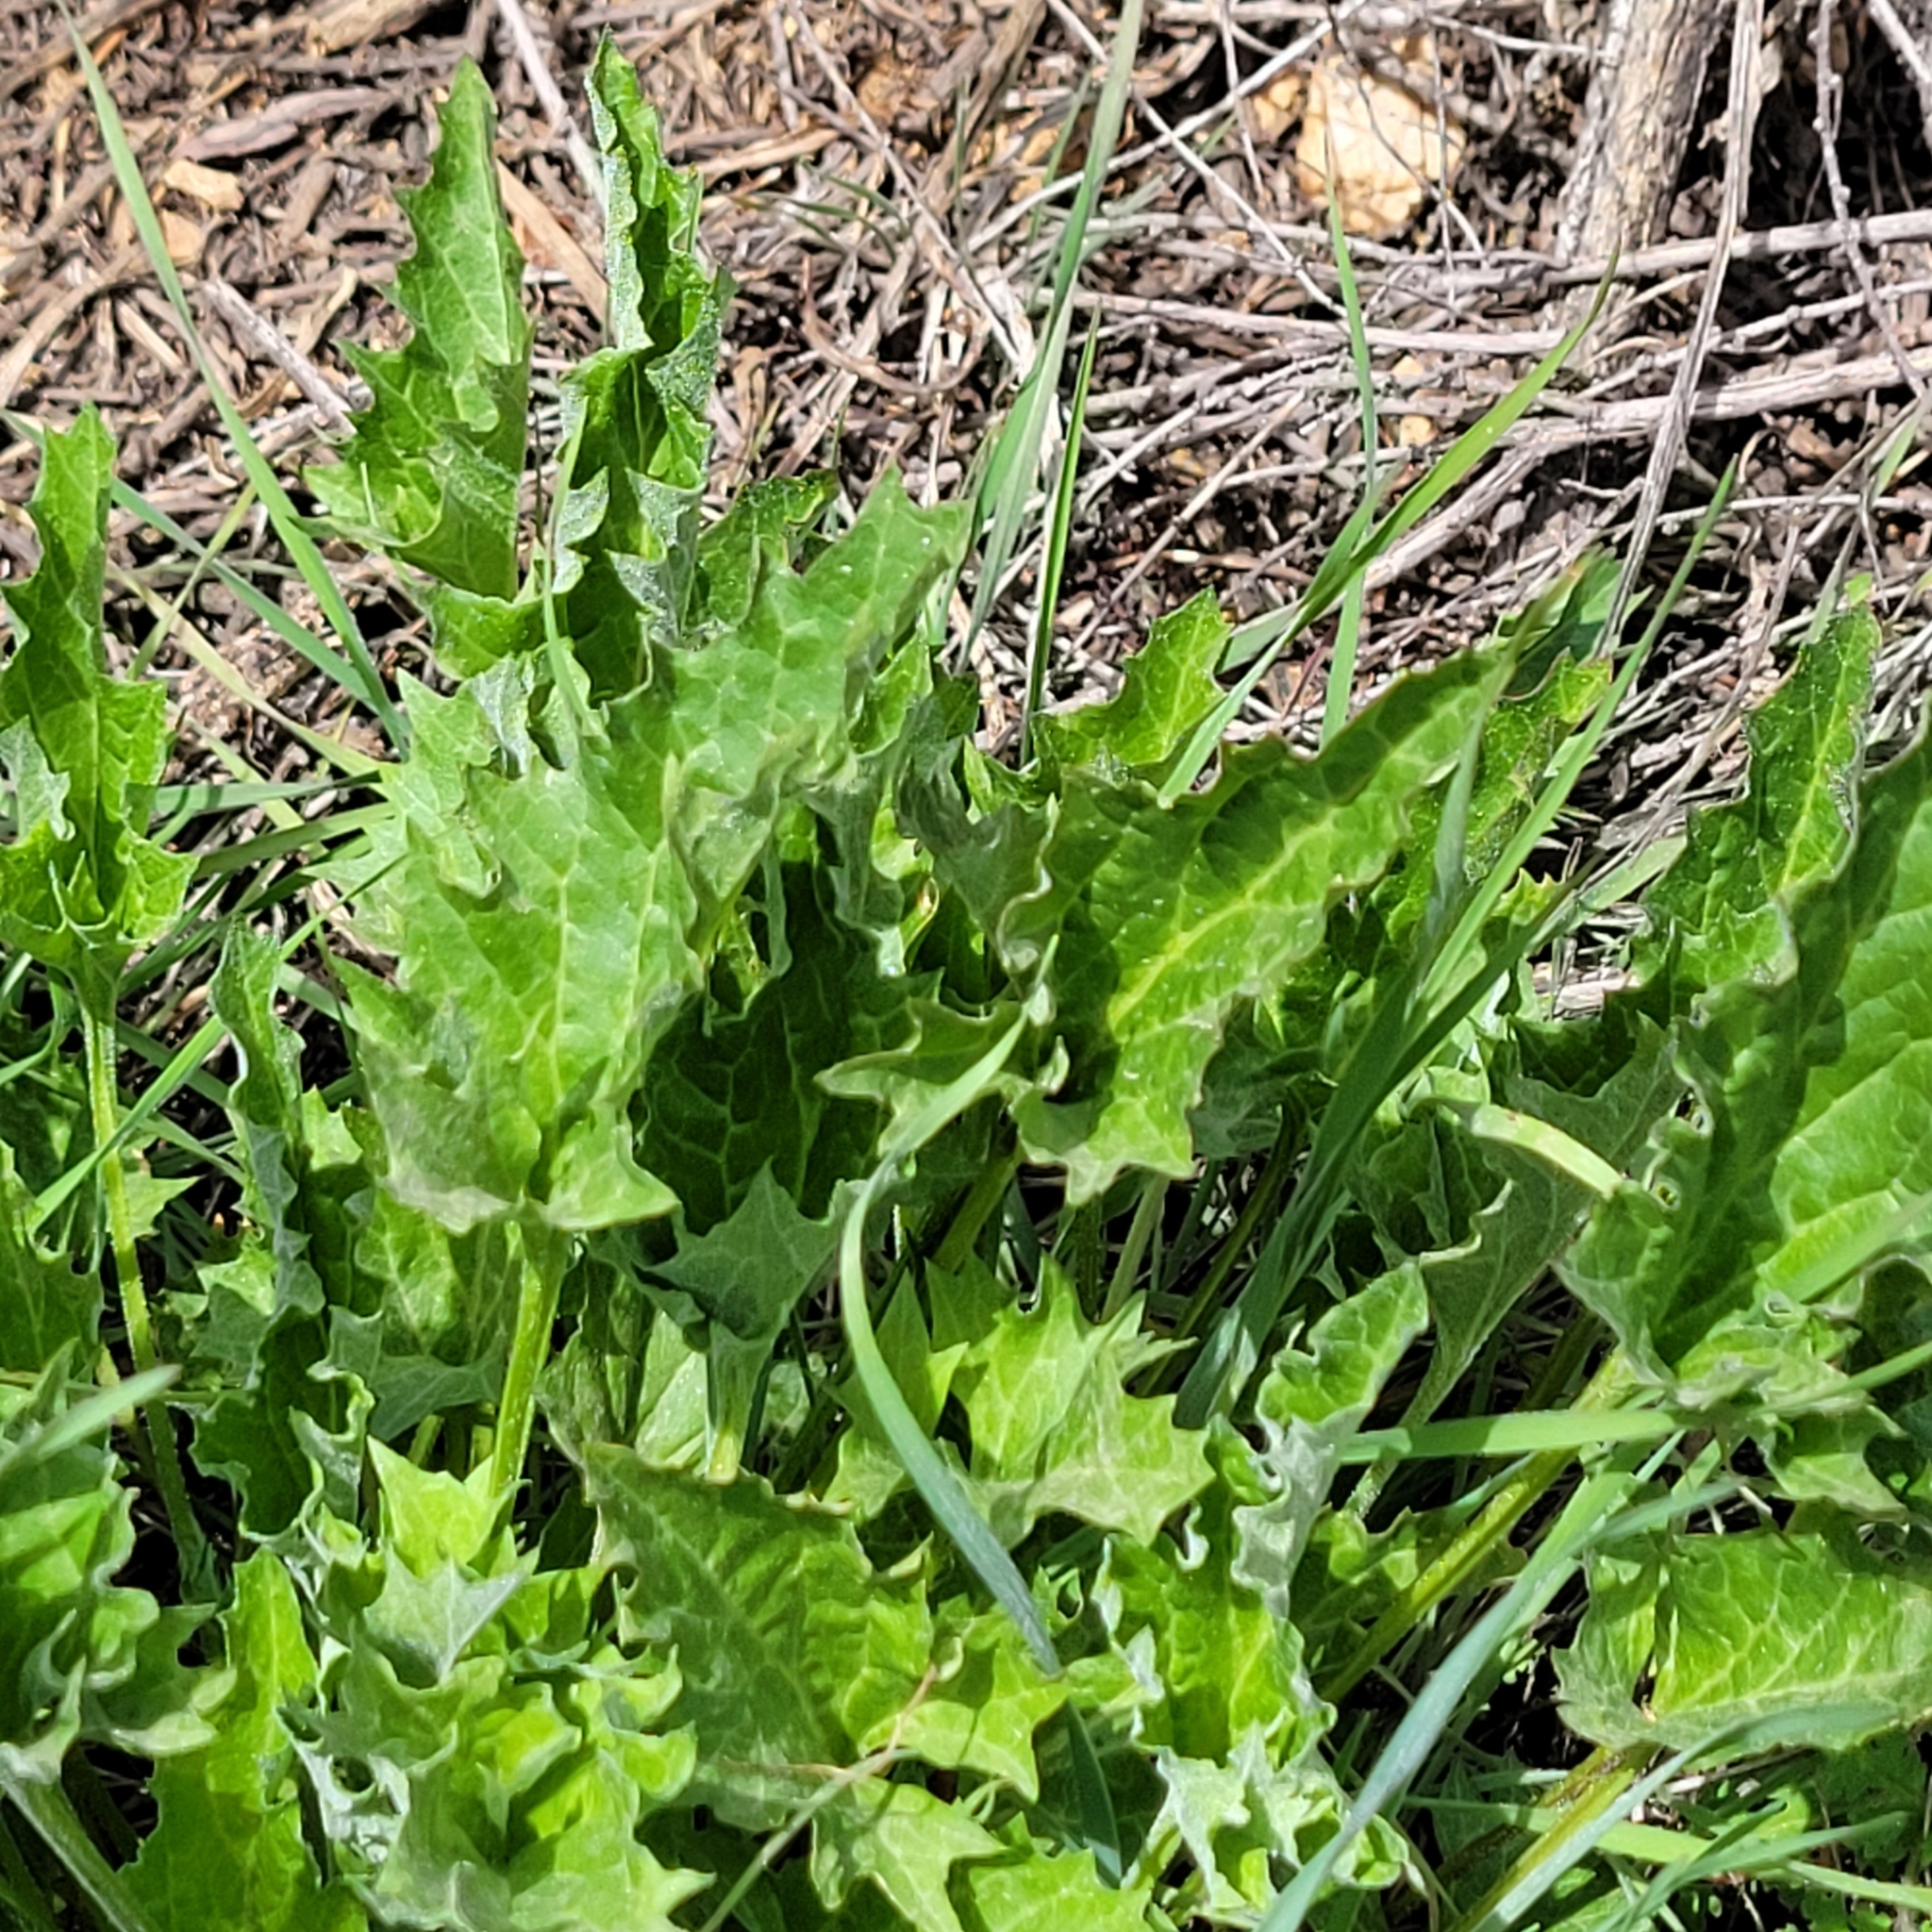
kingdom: Plantae
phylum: Tracheophyta
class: Magnoliopsida
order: Caryophyllales
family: Amaranthaceae
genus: Blitum
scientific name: Blitum californicum
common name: California goosefoot
